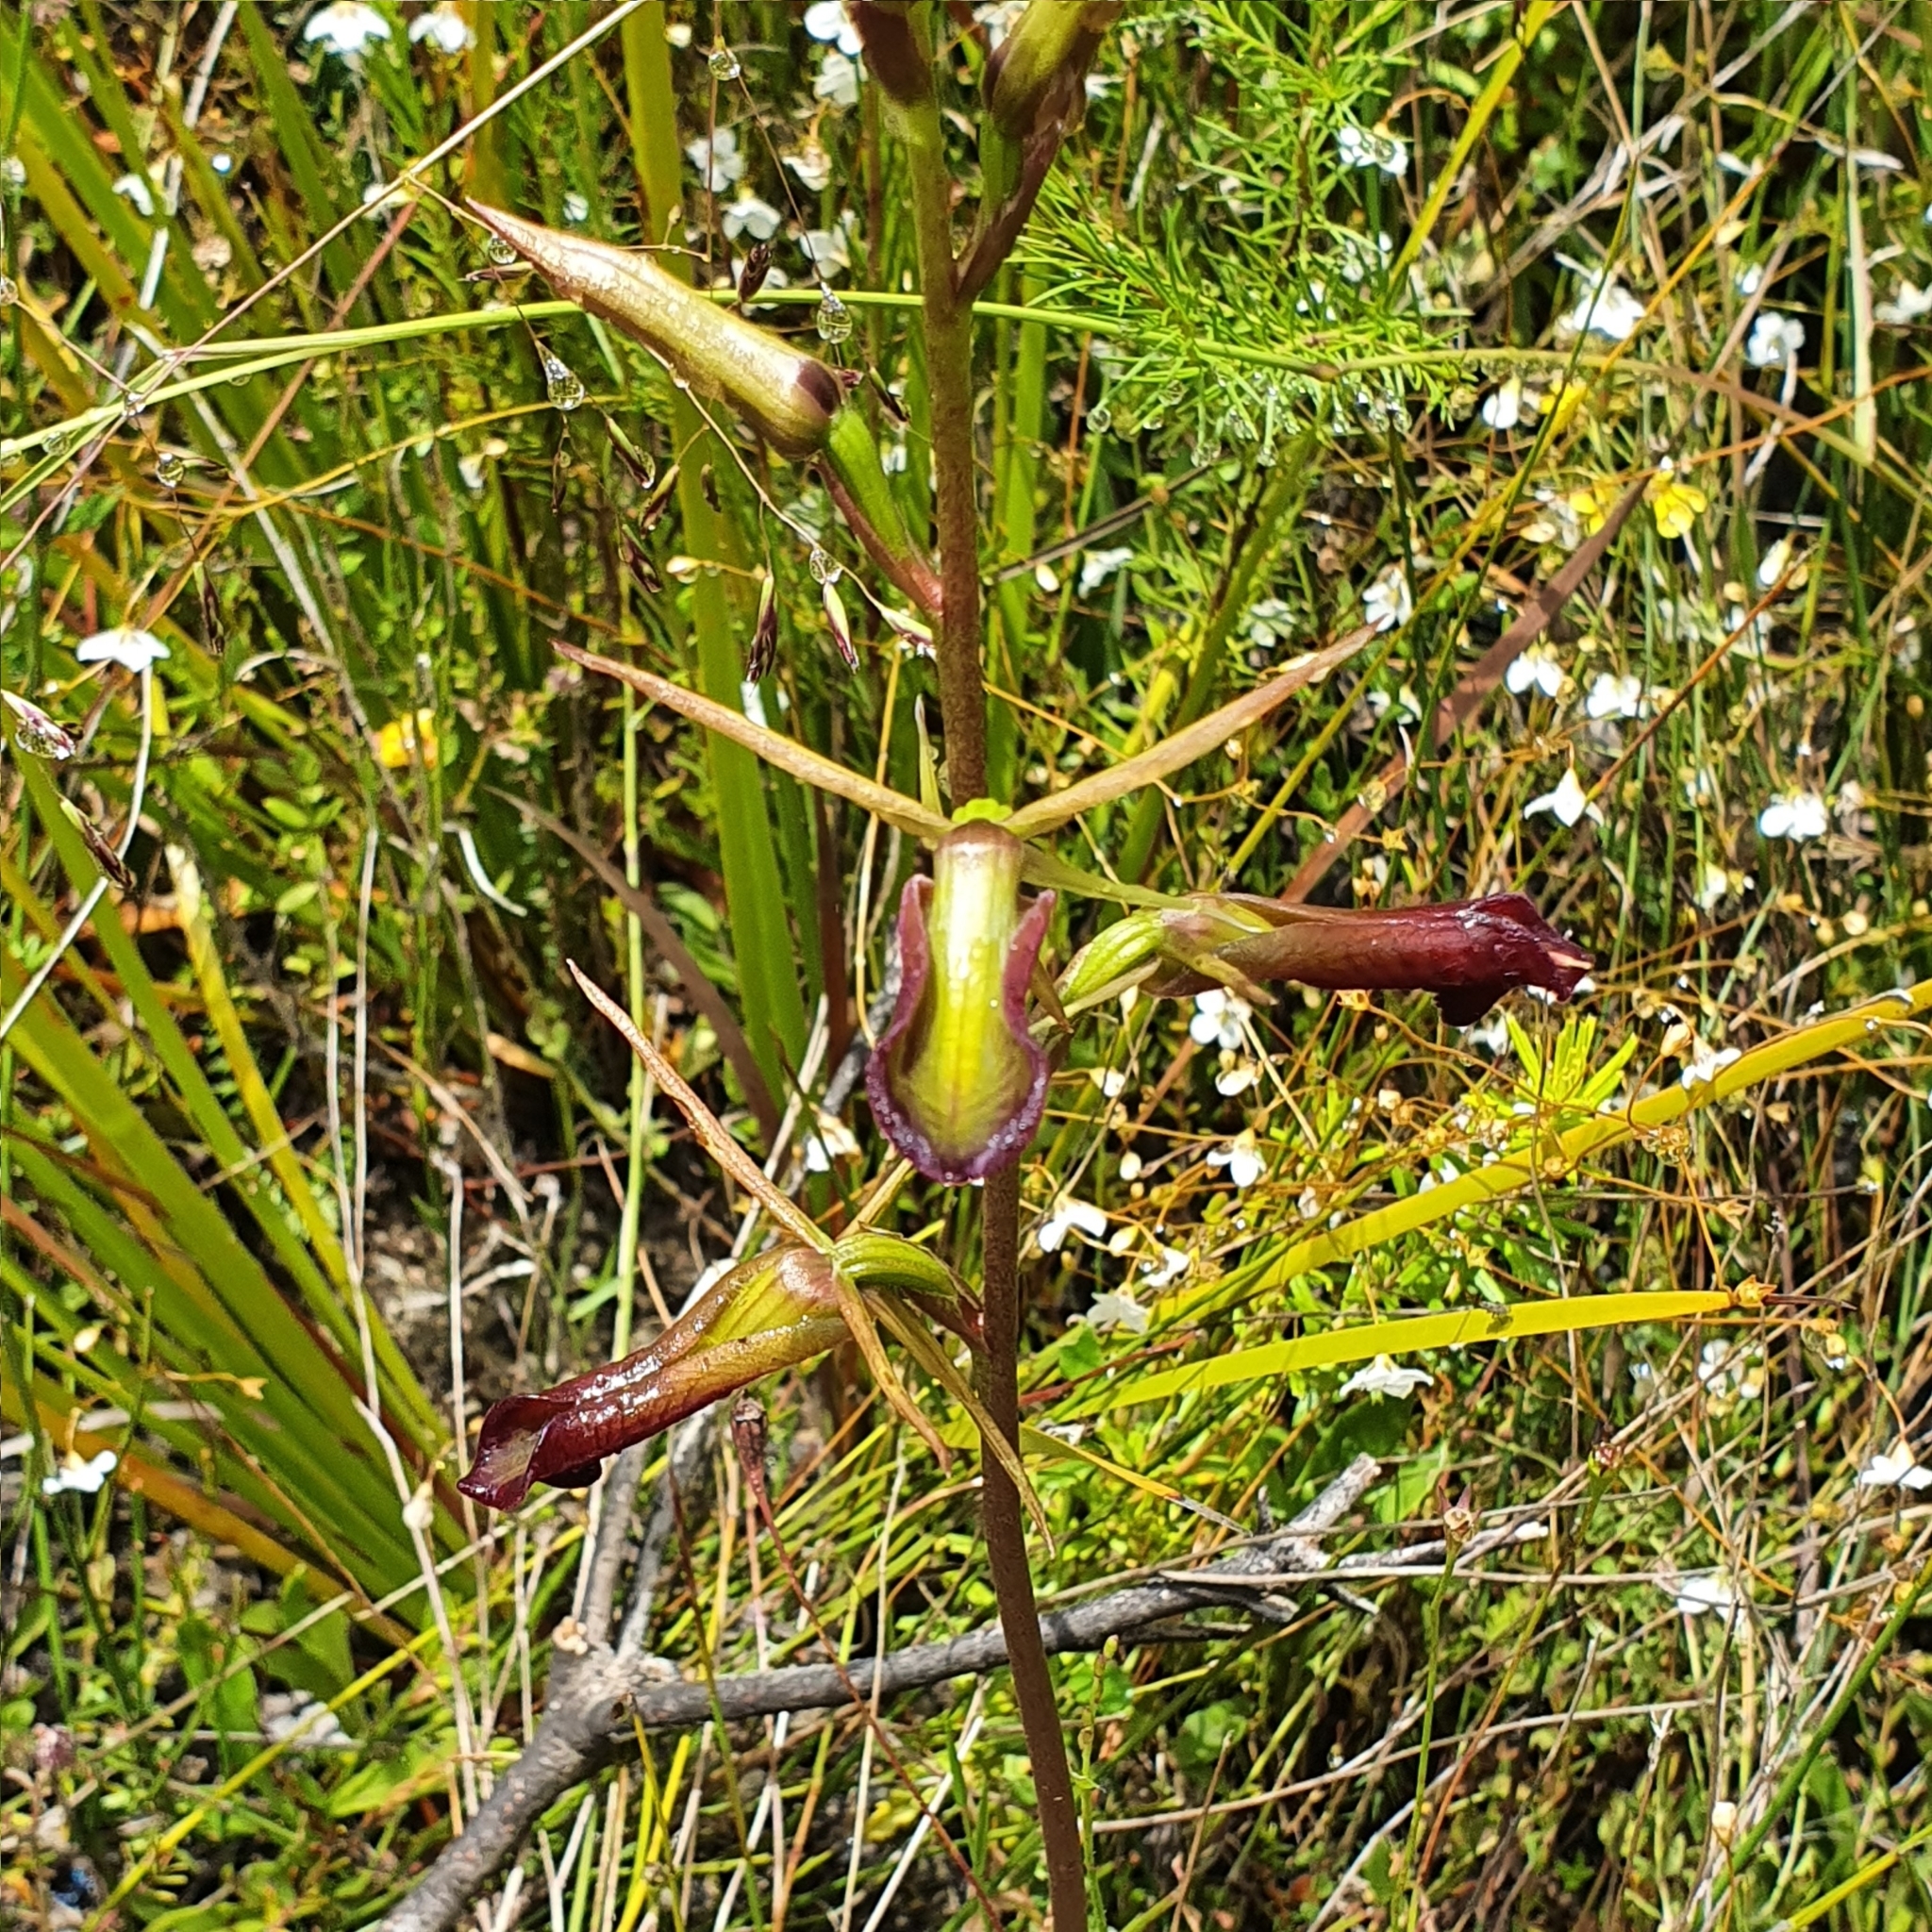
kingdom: Plantae
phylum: Tracheophyta
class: Liliopsida
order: Asparagales
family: Orchidaceae
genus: Cryptostylis
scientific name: Cryptostylis subulata
